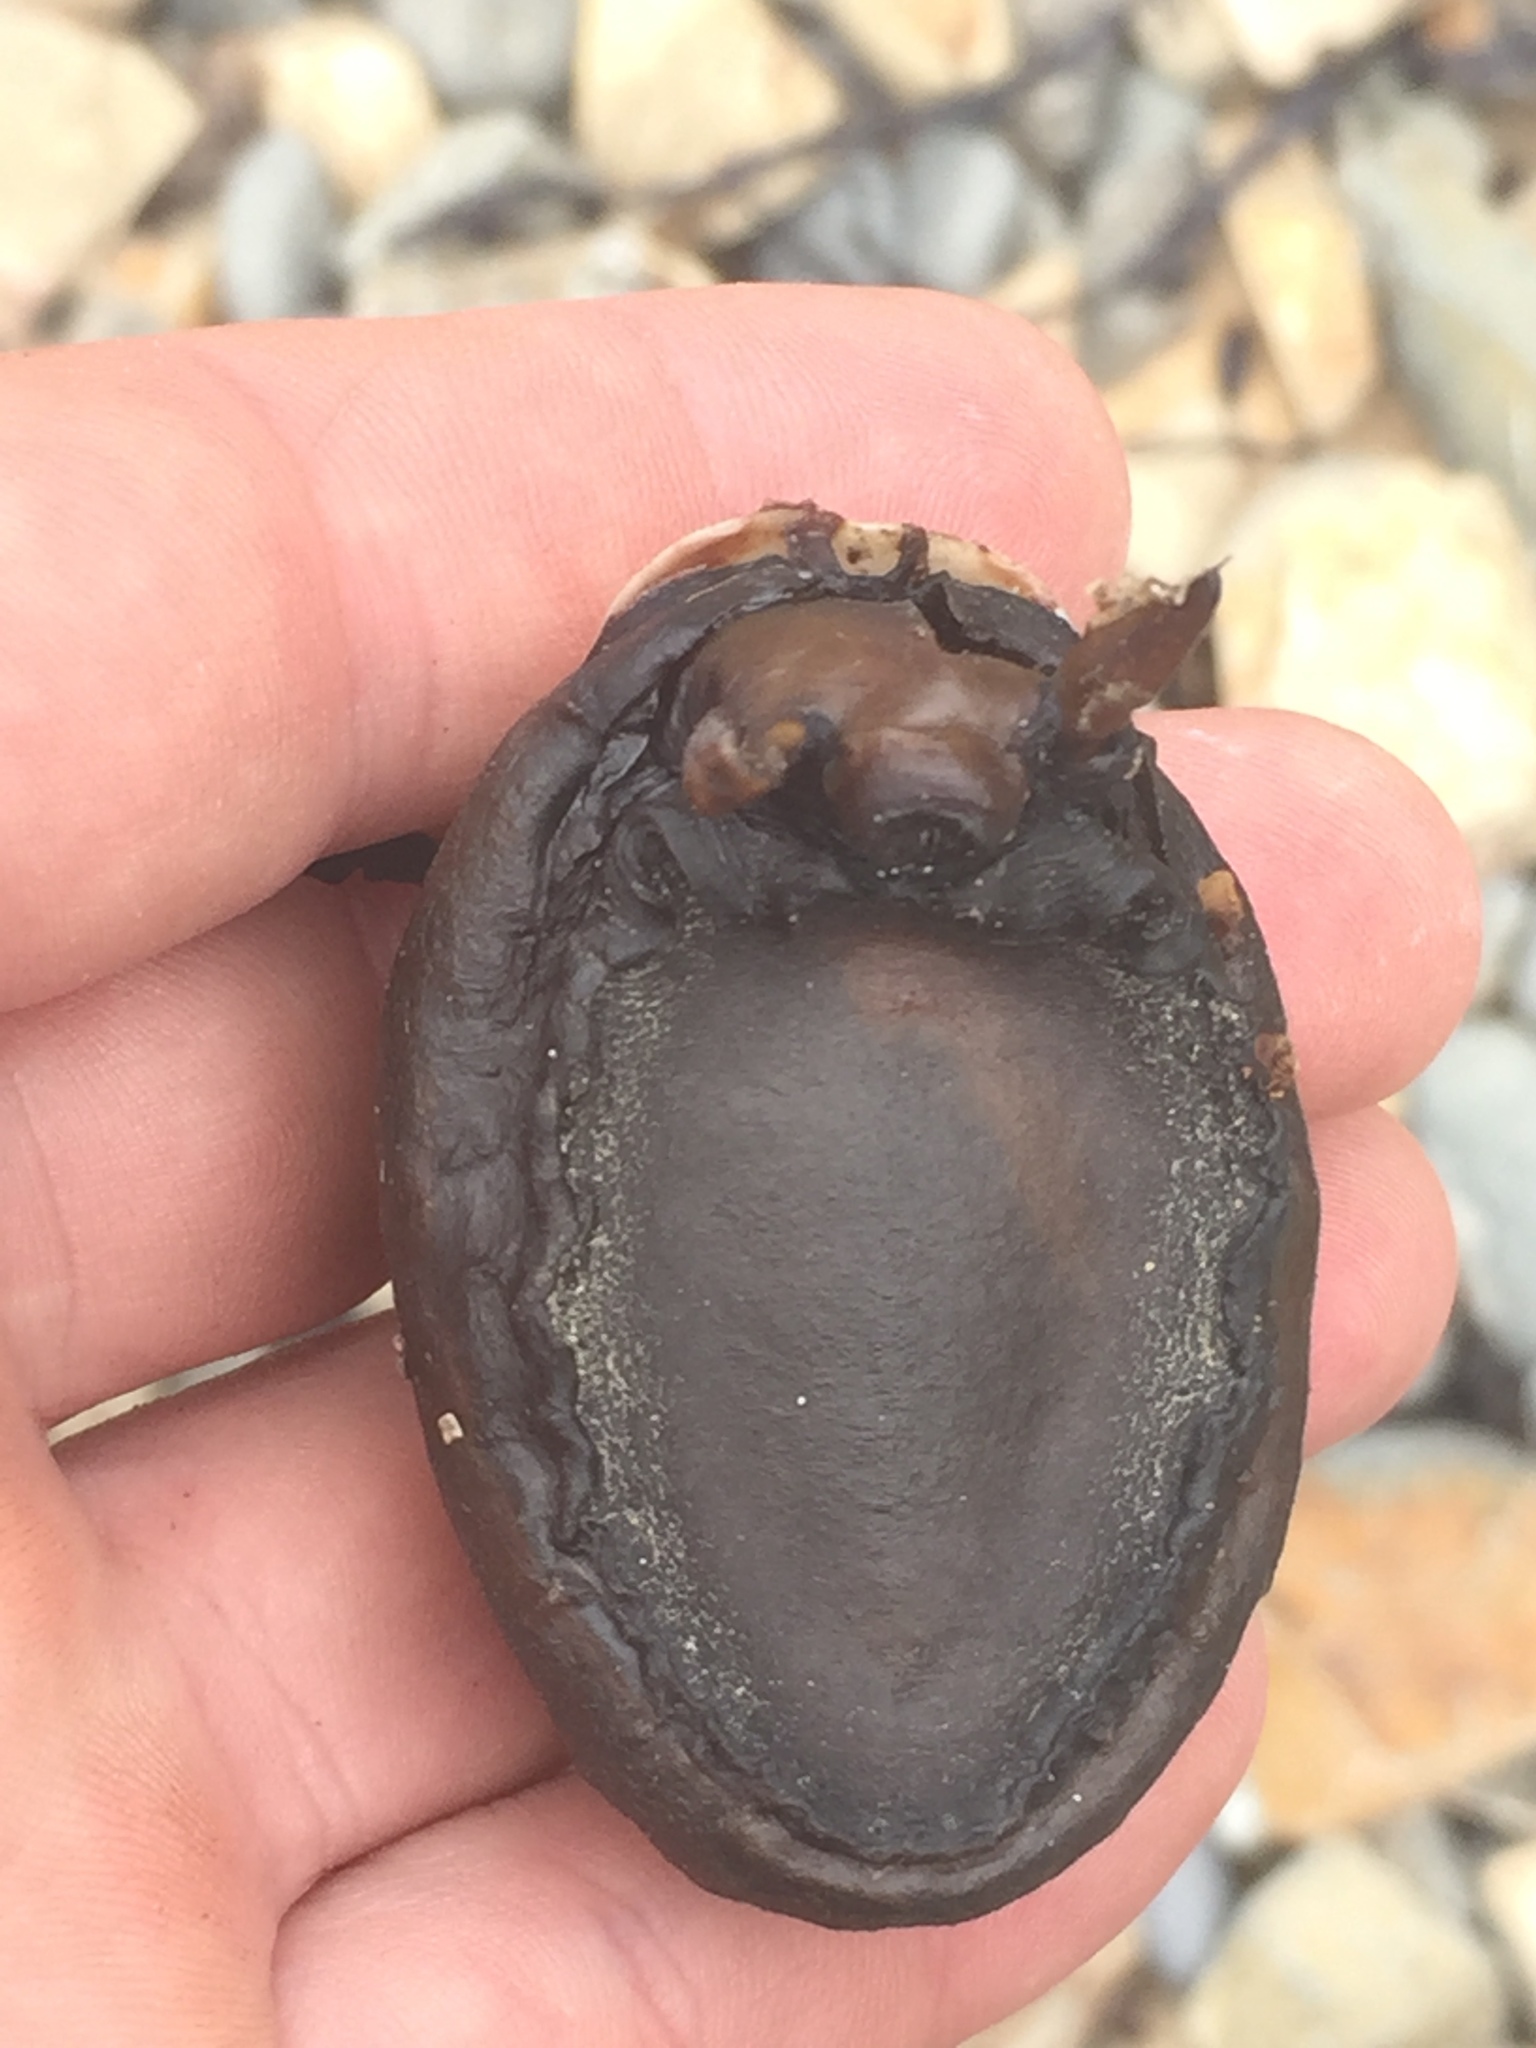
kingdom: Animalia
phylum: Mollusca
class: Gastropoda
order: Lepetellida
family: Fissurellidae
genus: Scutus
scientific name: Scutus breviculus
